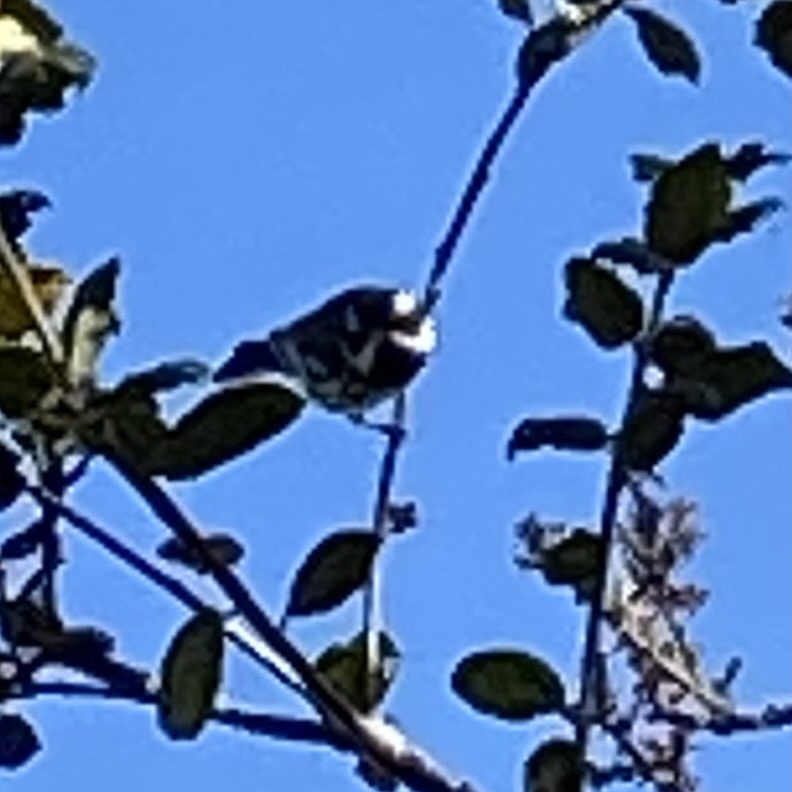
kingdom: Animalia
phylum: Chordata
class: Aves
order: Passeriformes
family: Parulidae
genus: Setophaga
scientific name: Setophaga nigrescens
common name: Black-throated gray warbler
